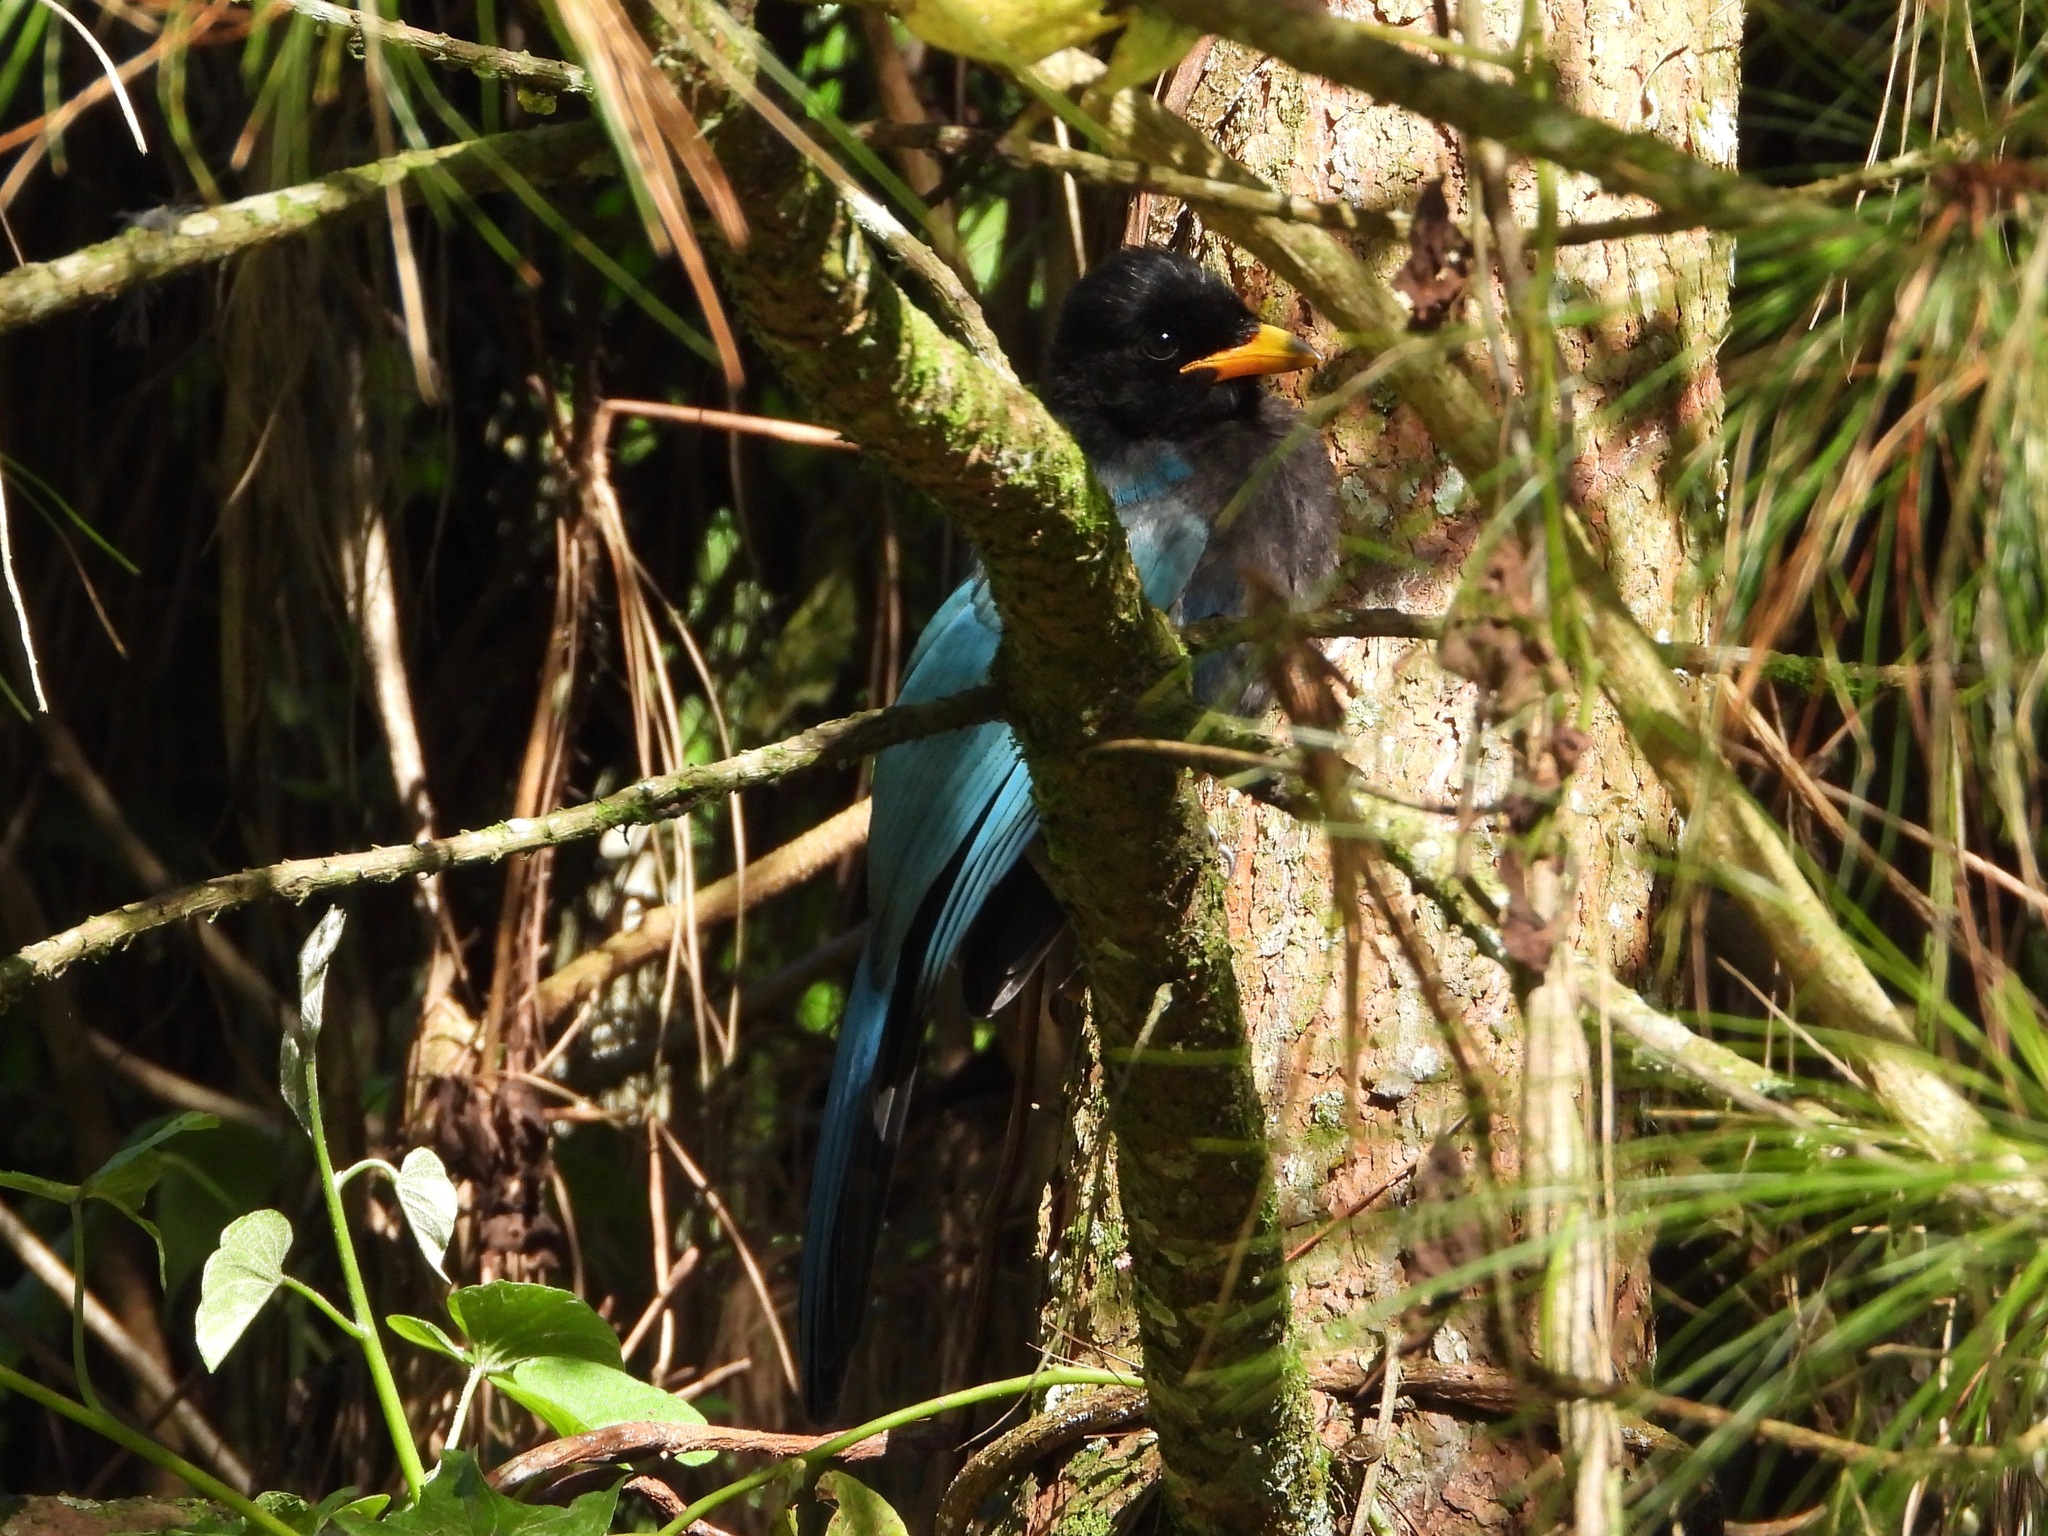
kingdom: Animalia
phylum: Chordata
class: Aves
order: Passeriformes
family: Corvidae
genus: Cyanocorax
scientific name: Cyanocorax melanocyaneus
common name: Bushy-crested jay
